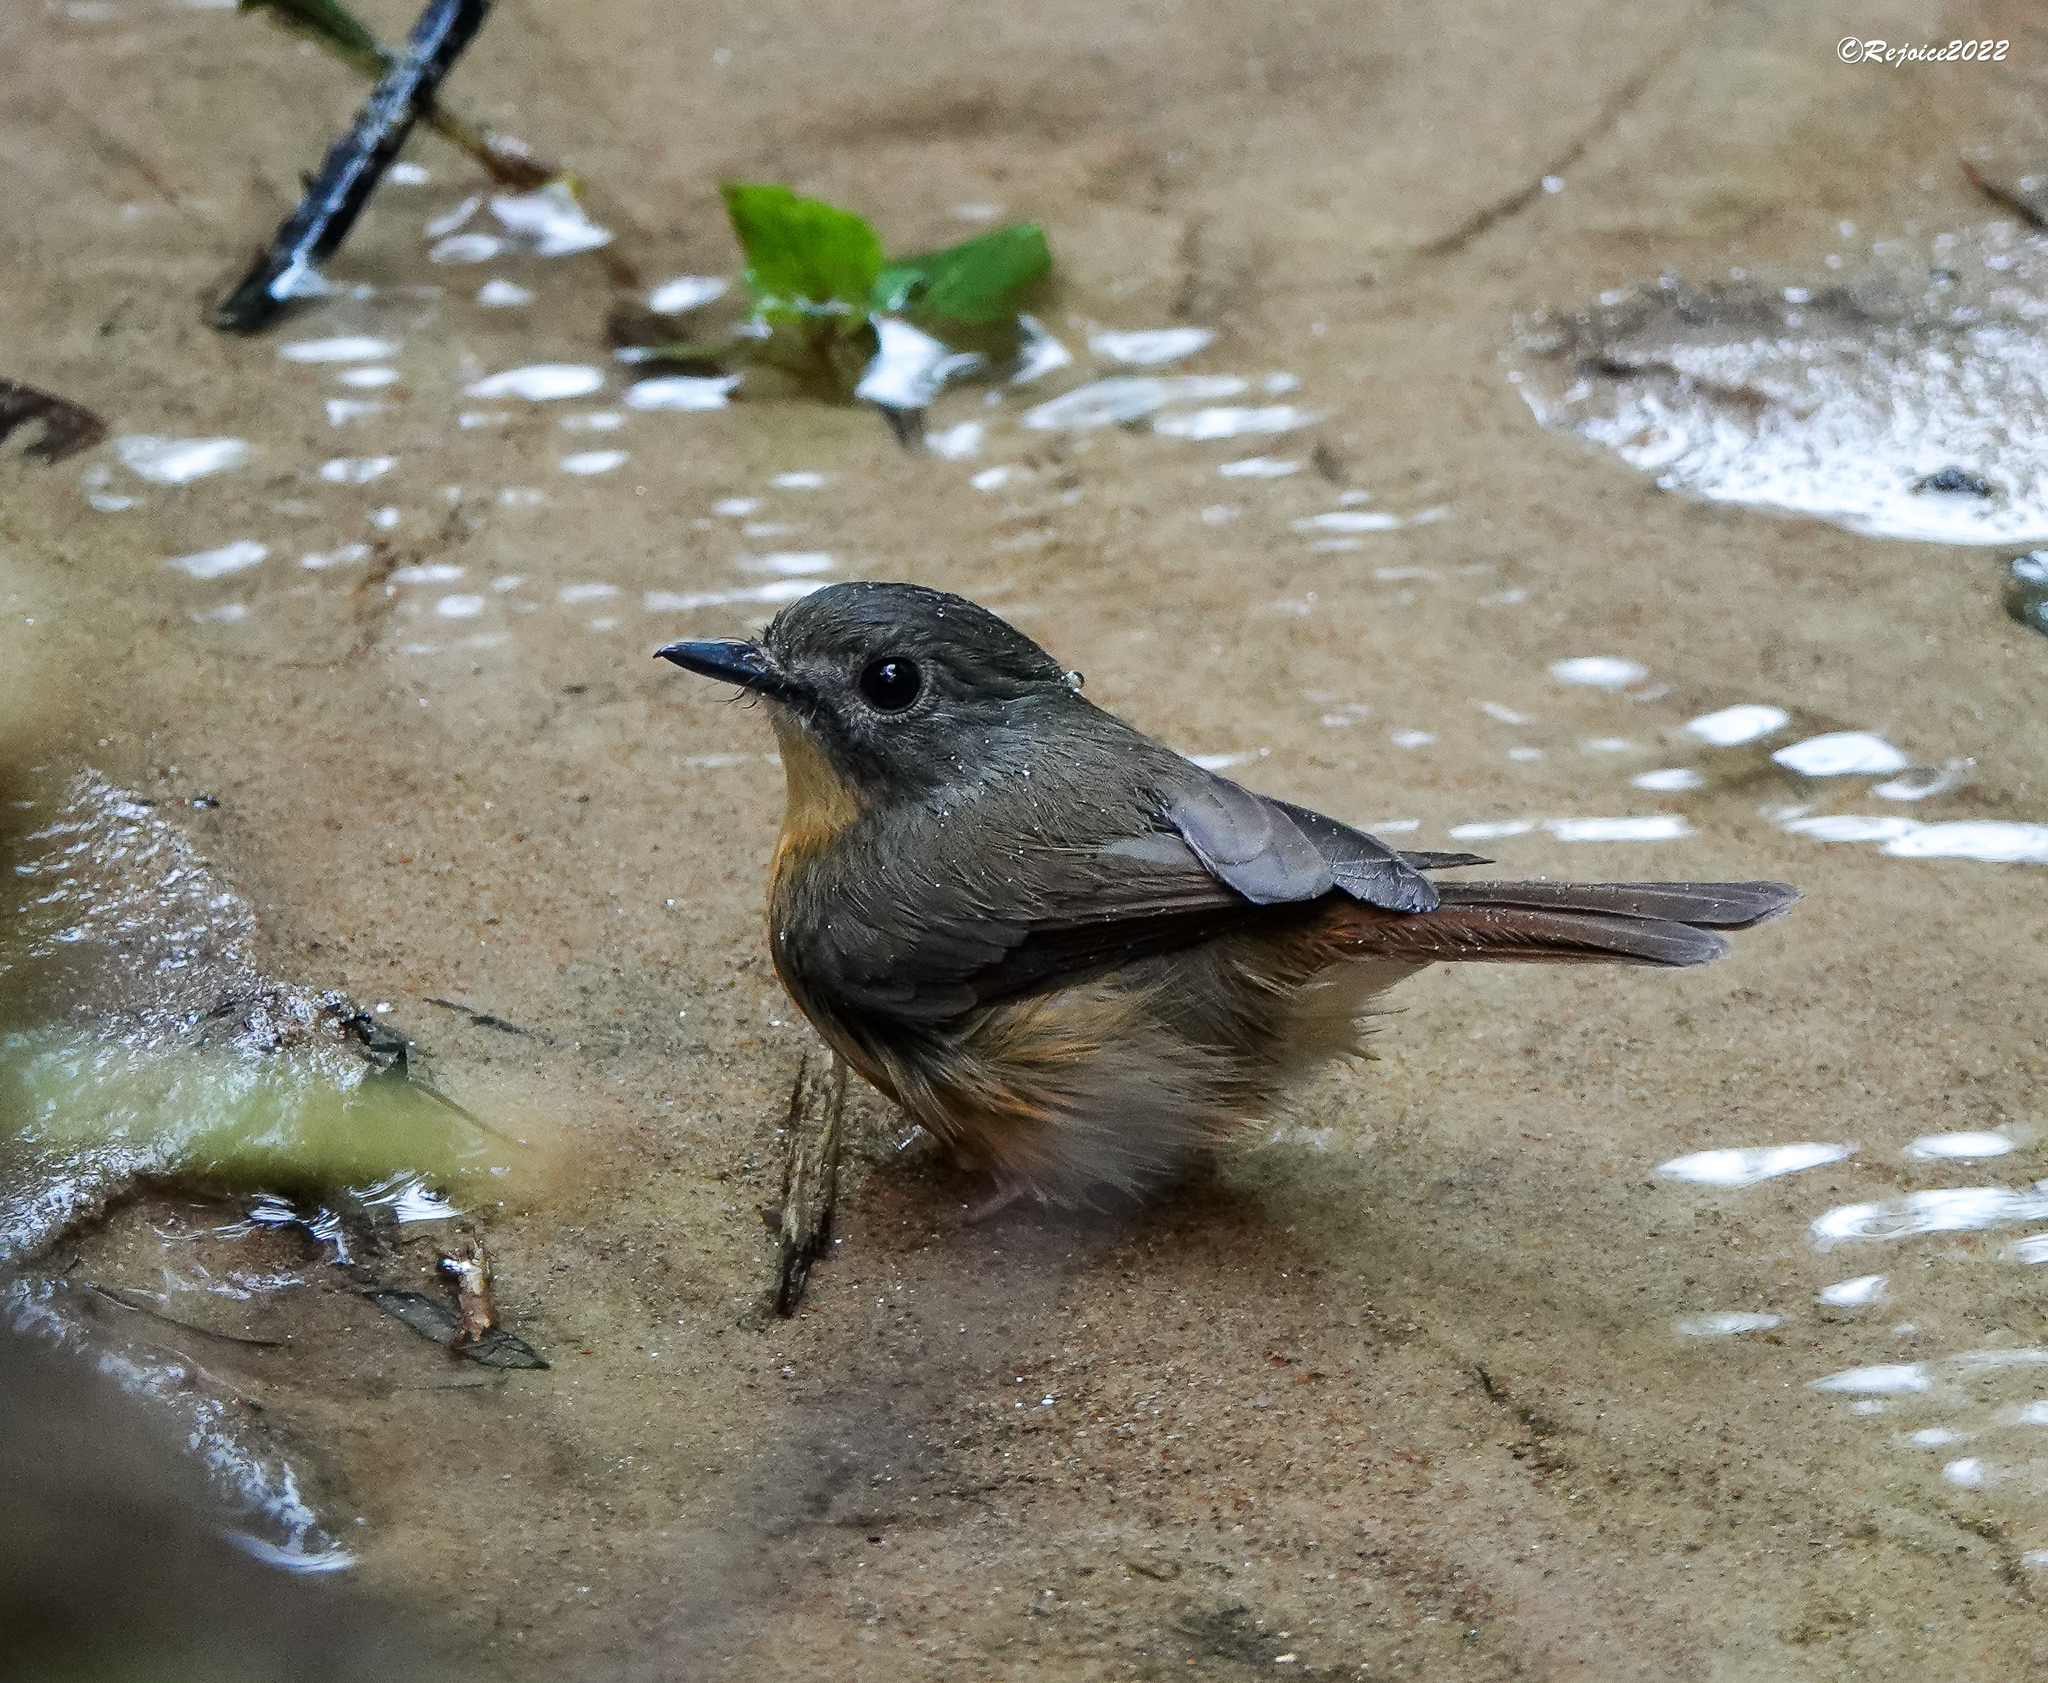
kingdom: Animalia
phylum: Chordata
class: Aves
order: Passeriformes
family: Muscicapidae
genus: Cyornis
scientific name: Cyornis poliogenys
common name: Pale-chinned blue flycatcher
